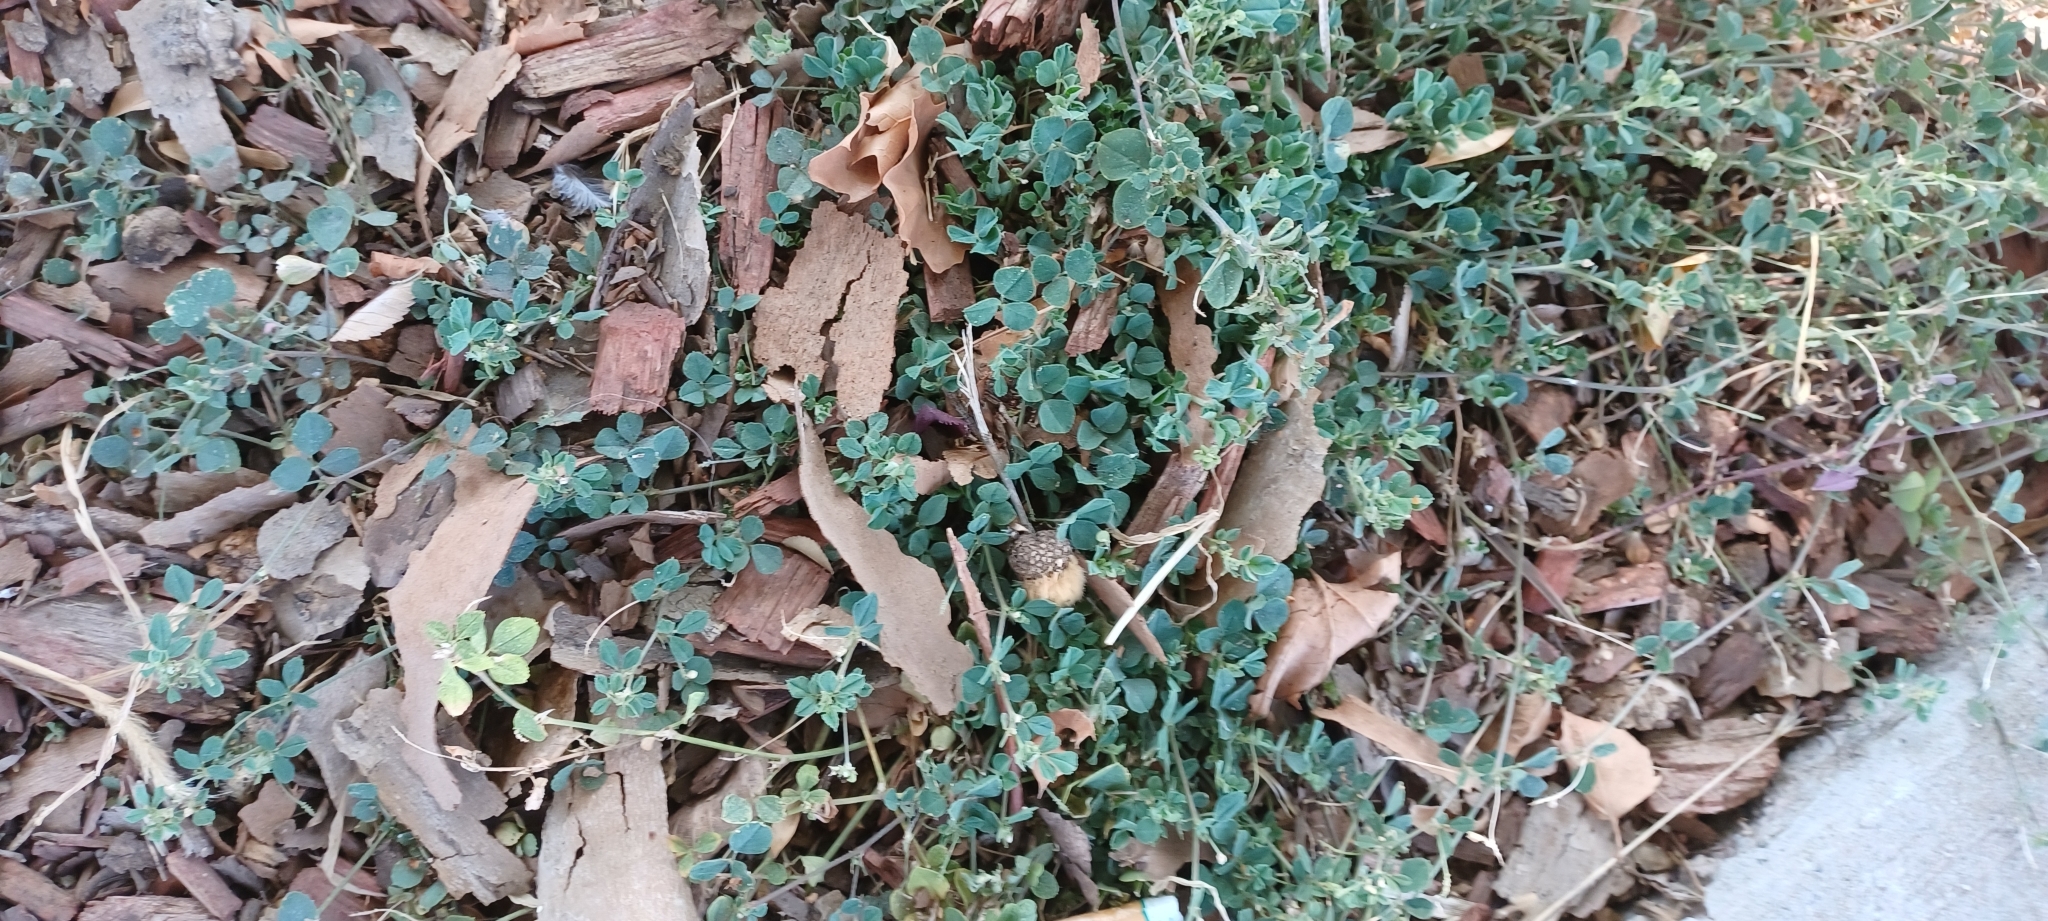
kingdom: Plantae
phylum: Tracheophyta
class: Magnoliopsida
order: Fabales
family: Fabaceae
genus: Medicago
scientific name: Medicago lupulina
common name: Black medick
